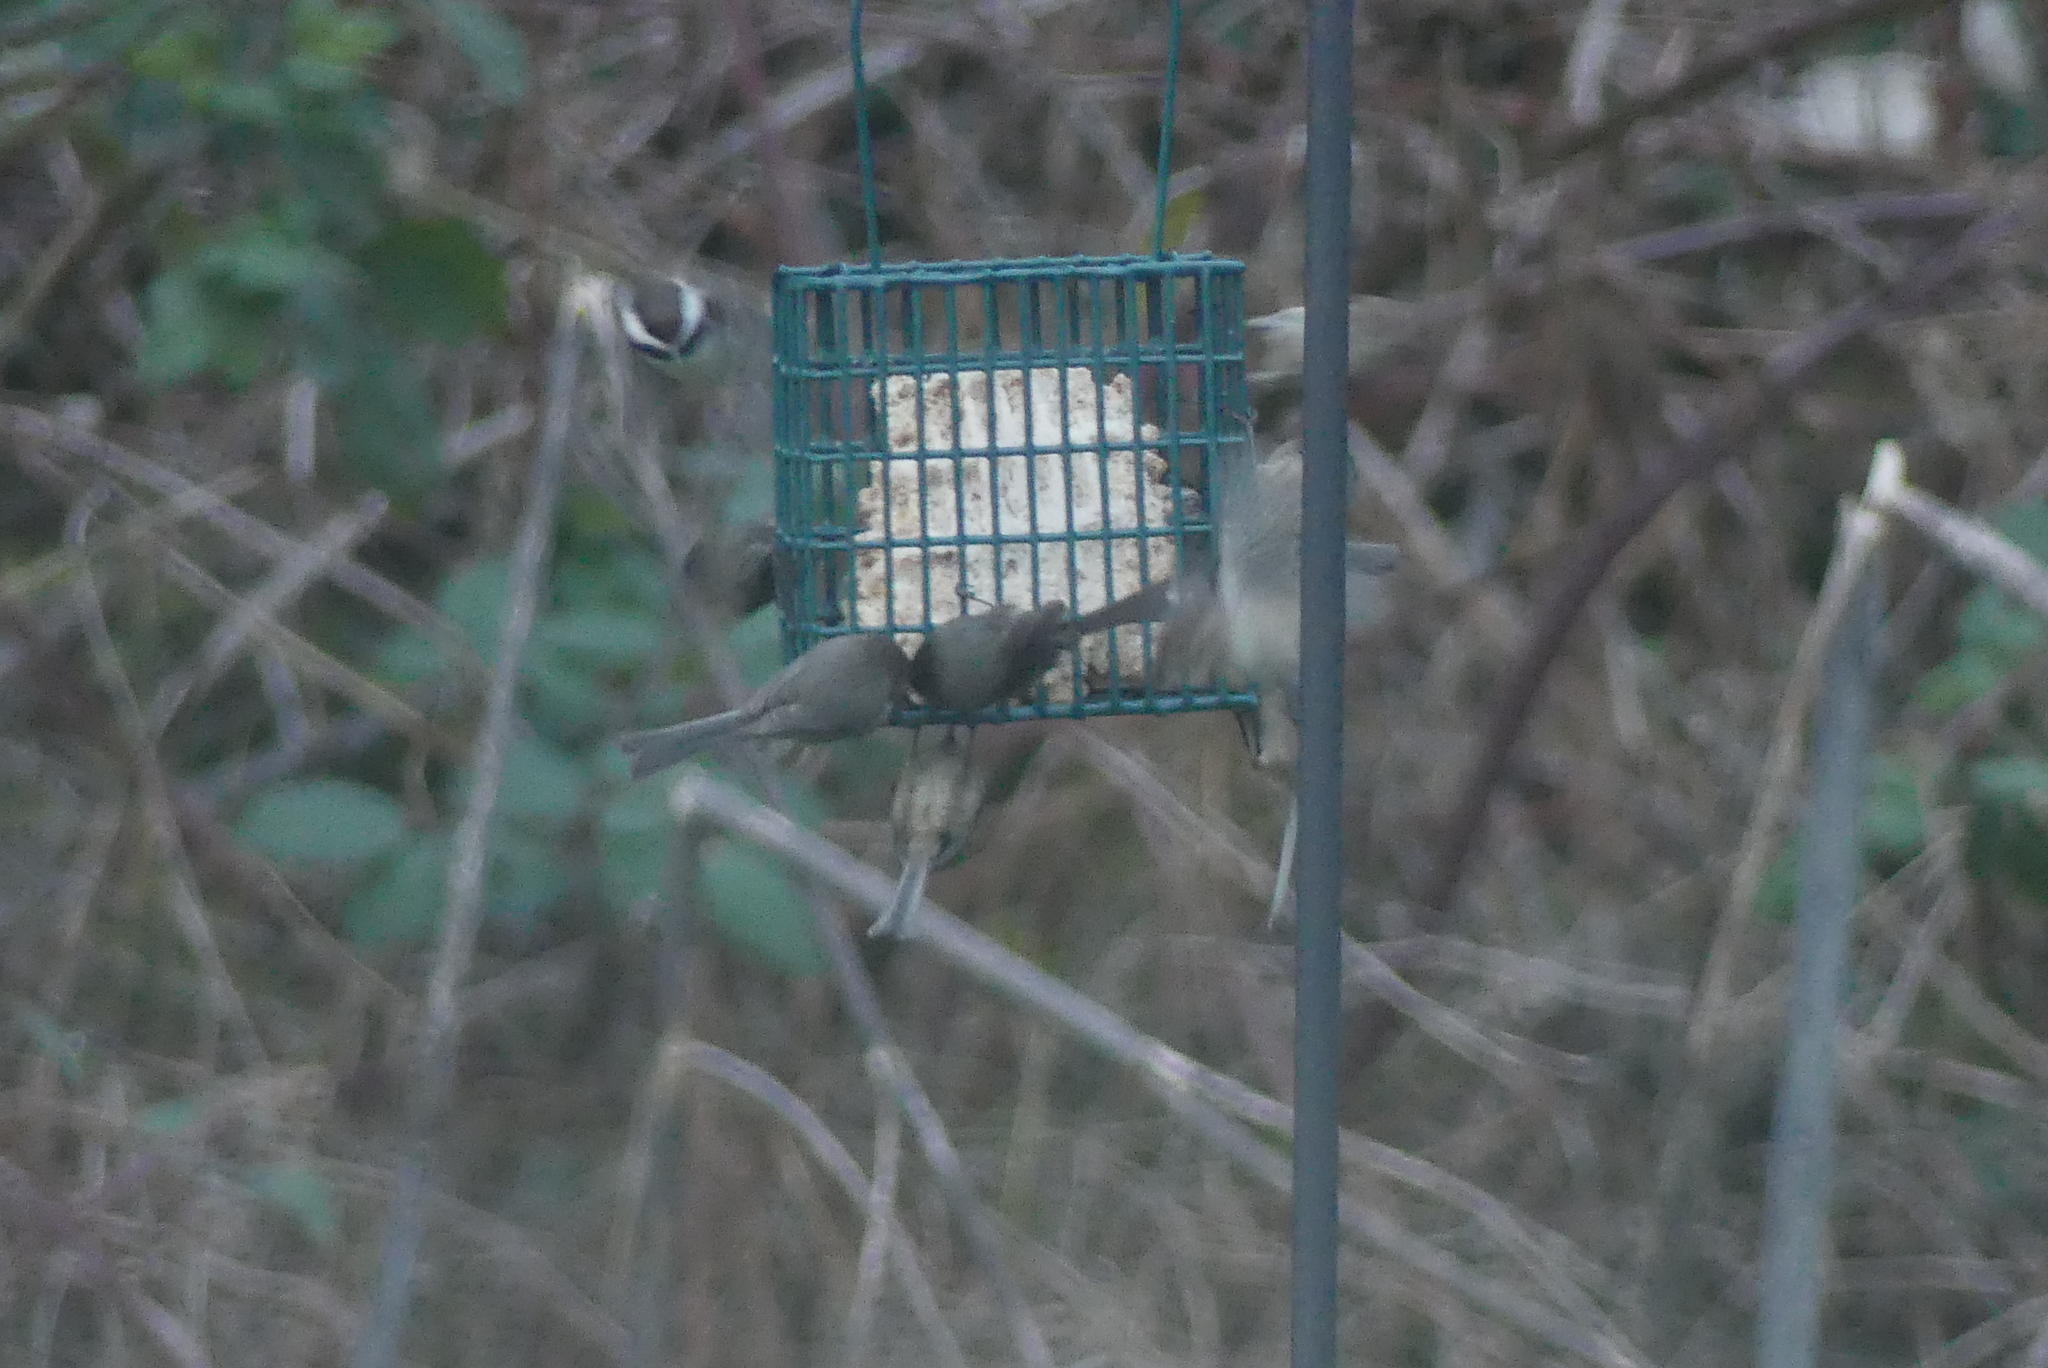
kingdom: Animalia
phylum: Chordata
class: Aves
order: Passeriformes
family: Aegithalidae
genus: Psaltriparus
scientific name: Psaltriparus minimus
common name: American bushtit
